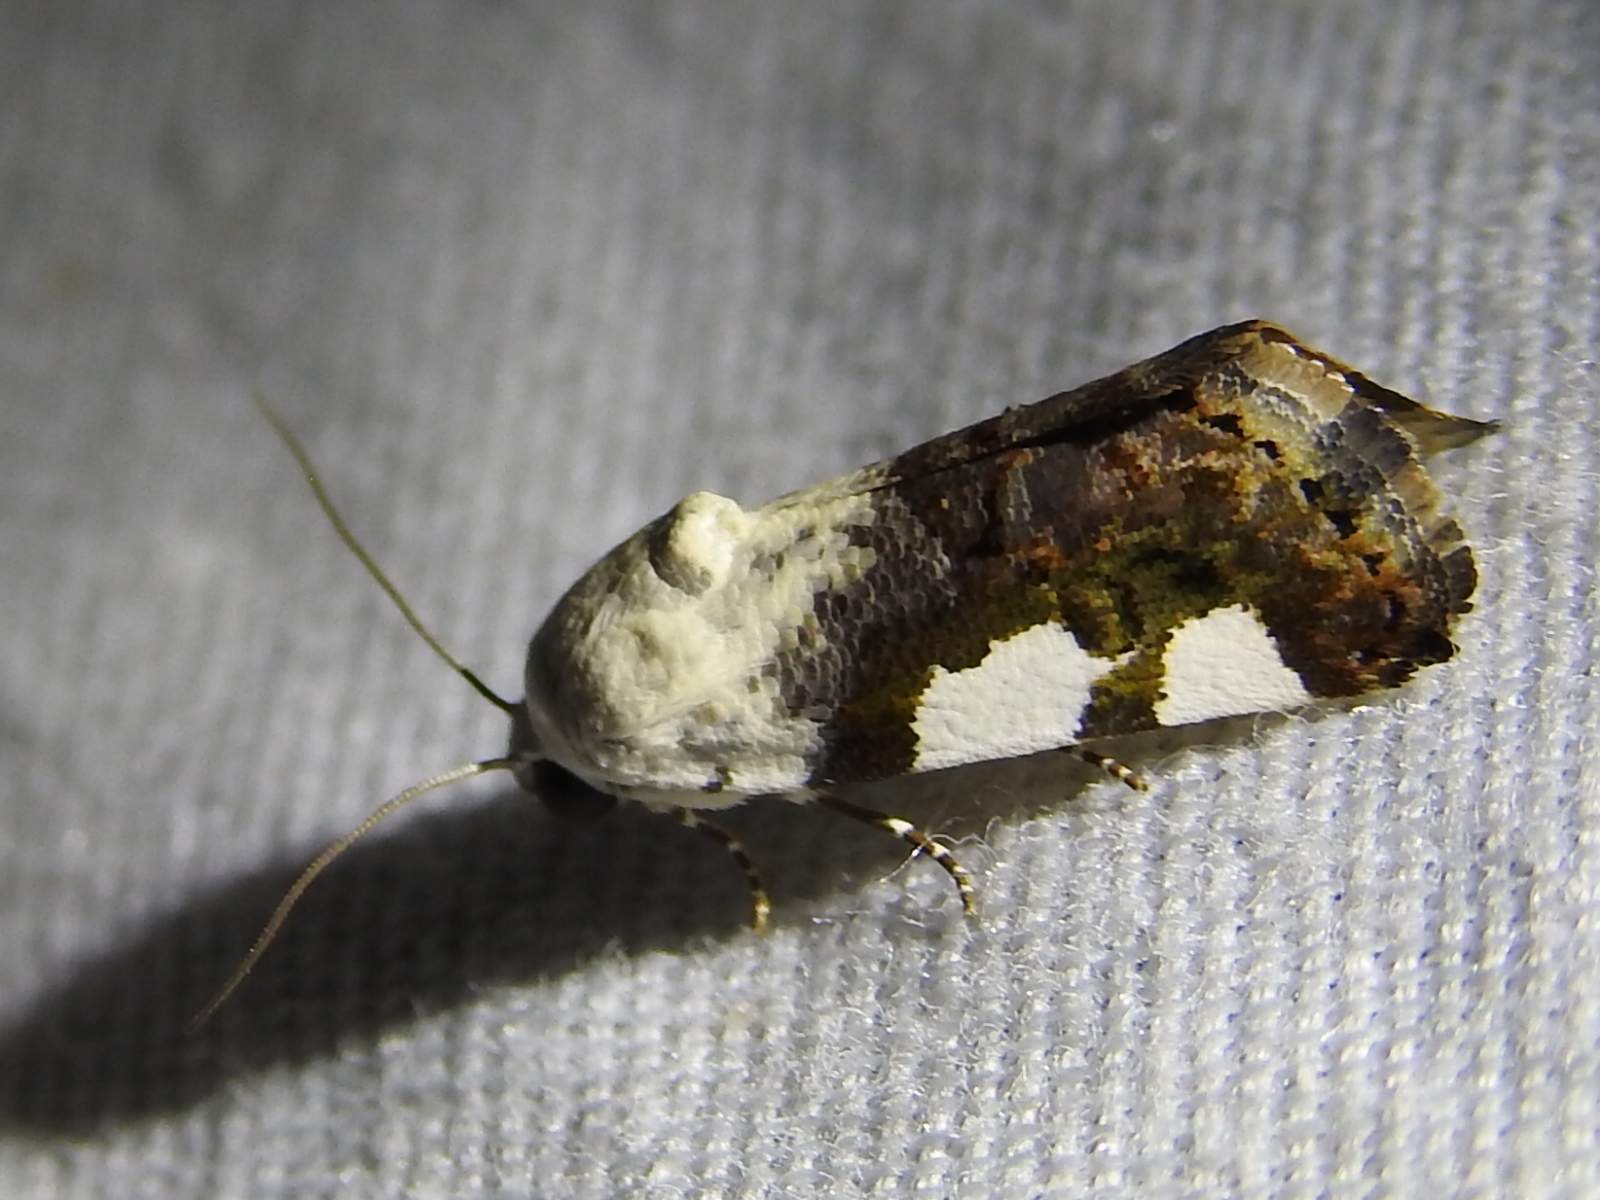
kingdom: Animalia
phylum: Arthropoda
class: Insecta
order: Lepidoptera
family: Noctuidae
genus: Acontia
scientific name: Acontia quadriplaga
